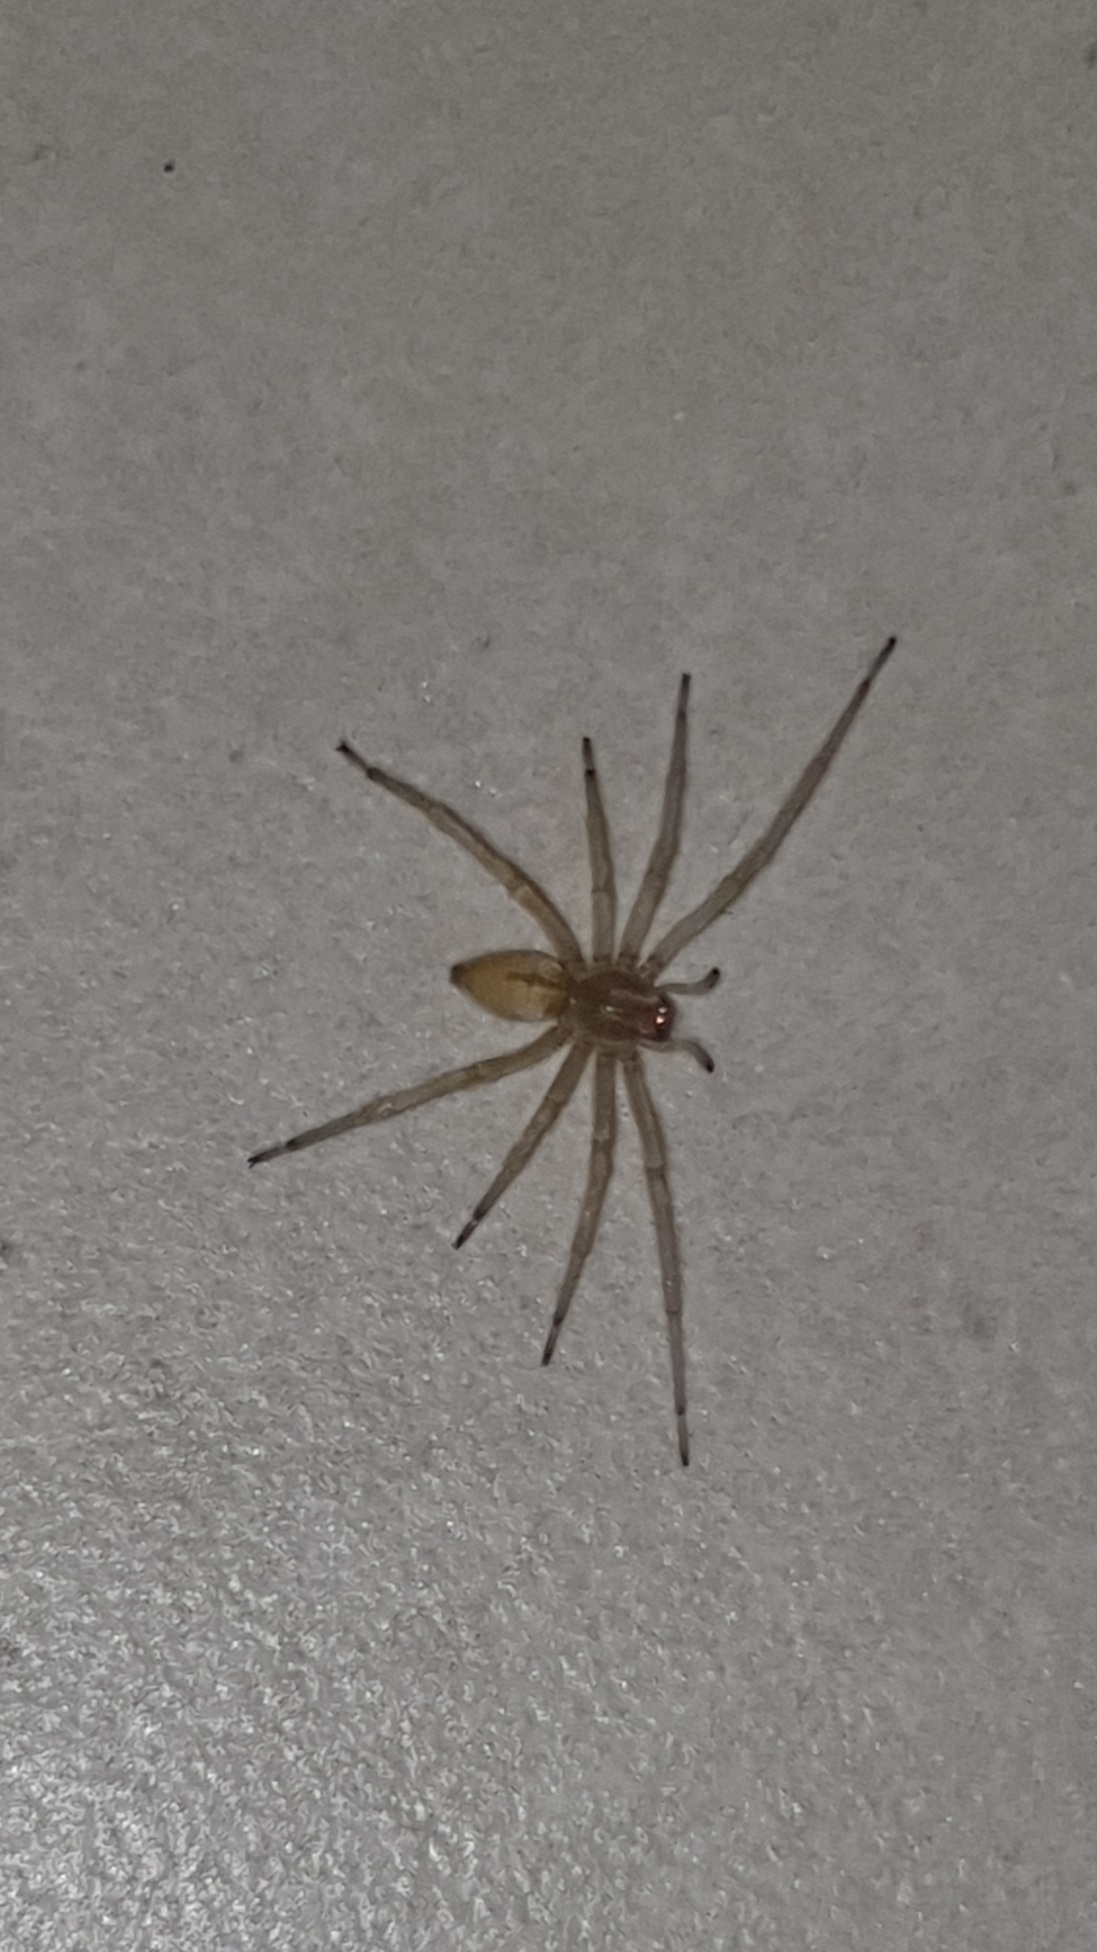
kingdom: Animalia
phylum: Arthropoda
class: Arachnida
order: Araneae
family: Cheiracanthiidae
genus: Cheiracanthium
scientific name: Cheiracanthium mildei
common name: Northern yellow sac spider
